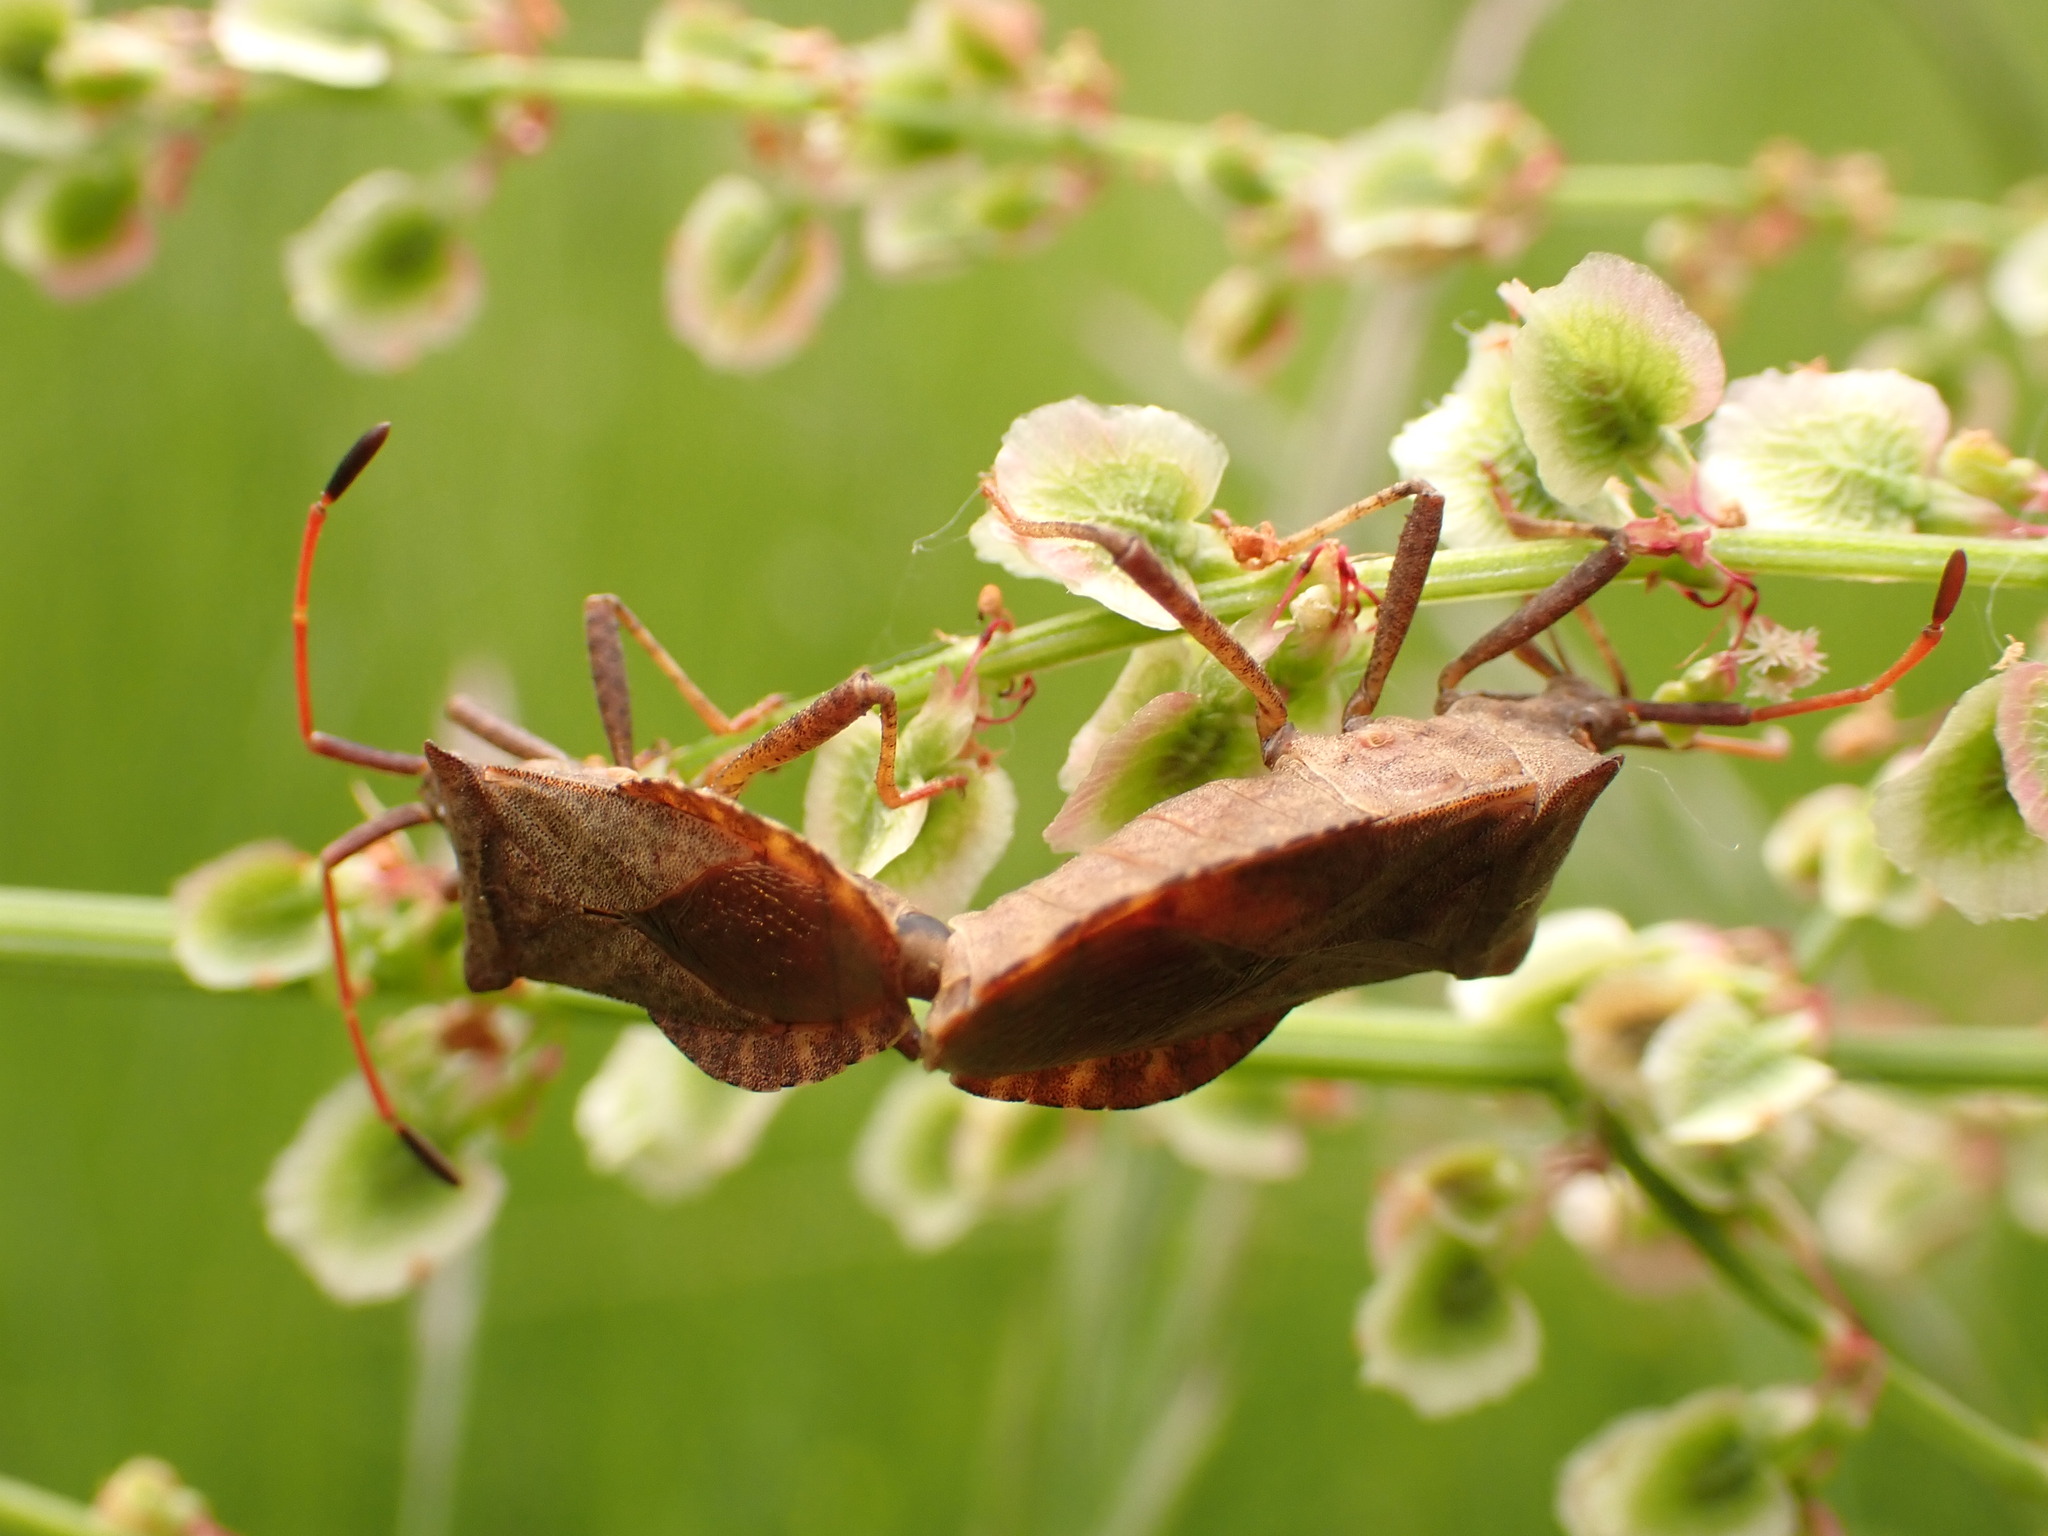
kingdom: Animalia
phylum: Arthropoda
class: Insecta
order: Hemiptera
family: Coreidae
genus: Coreus
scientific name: Coreus marginatus
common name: Dock bug
